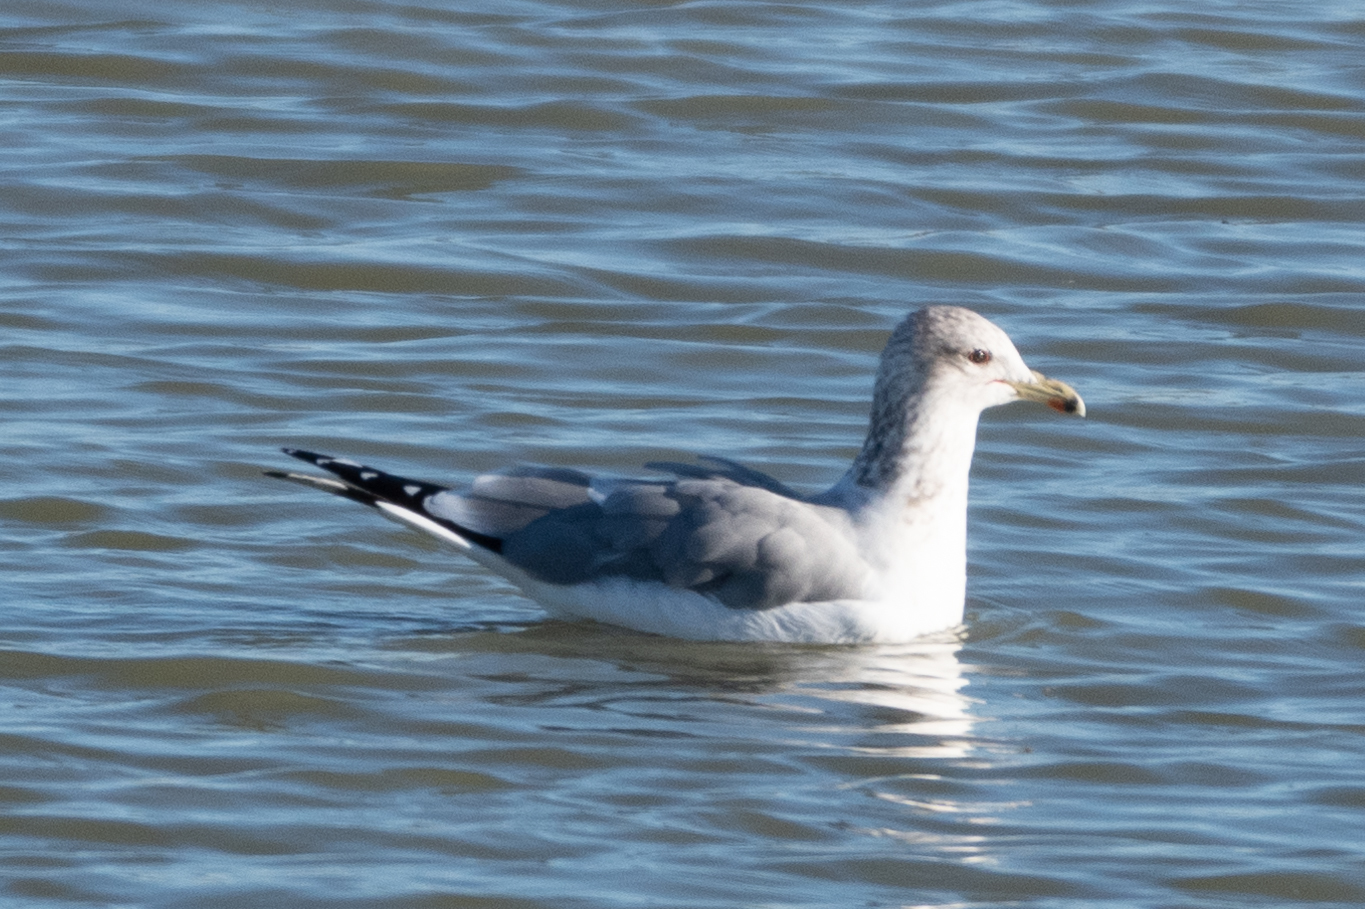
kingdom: Animalia
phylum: Chordata
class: Aves
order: Charadriiformes
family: Laridae
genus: Larus
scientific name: Larus californicus
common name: California gull
